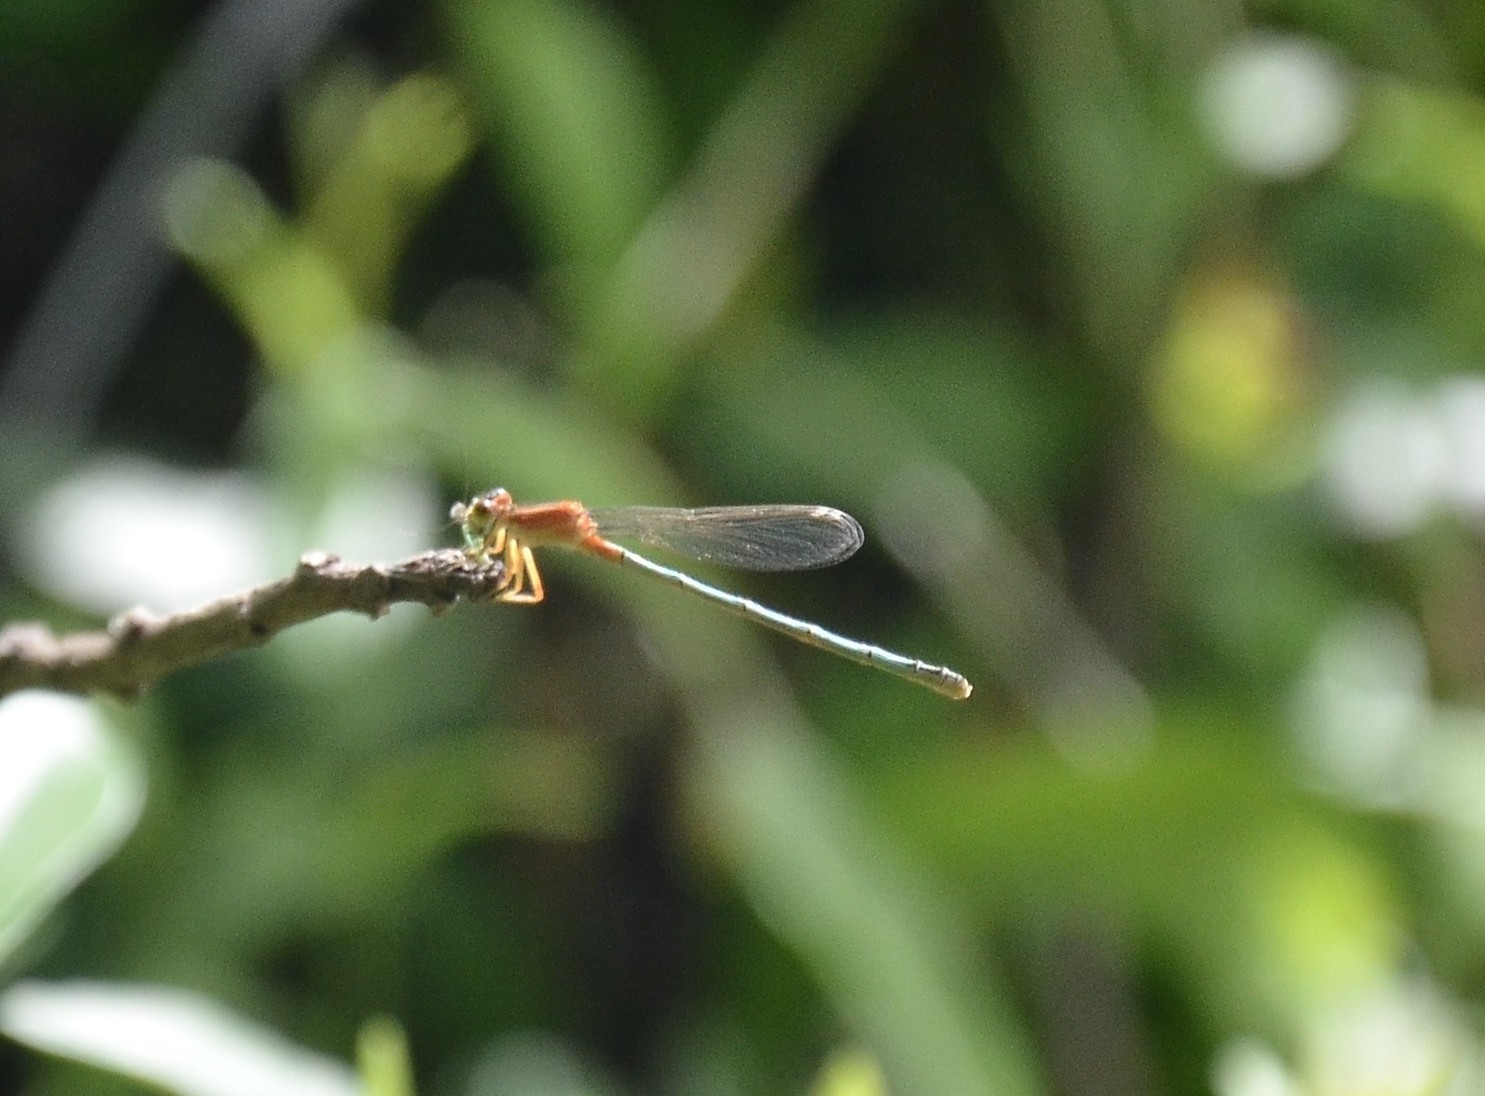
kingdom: Animalia
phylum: Arthropoda
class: Insecta
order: Odonata
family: Coenagrionidae
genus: Ischnura
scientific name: Ischnura senegalensis
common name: Tropical bluetail
